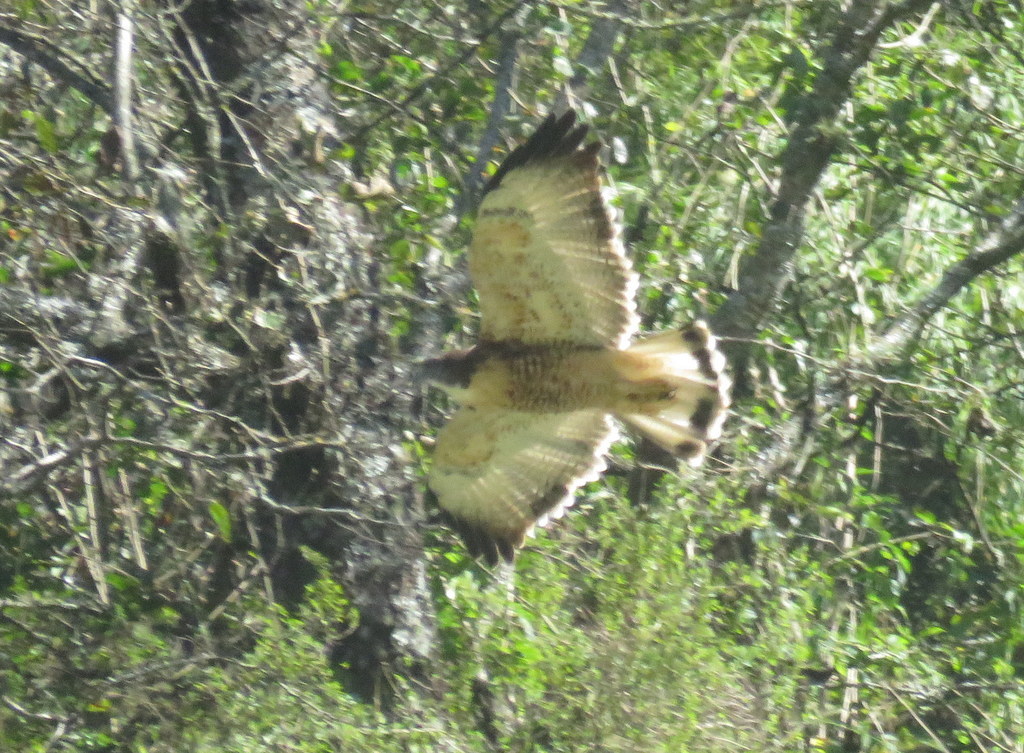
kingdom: Animalia
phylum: Chordata
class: Aves
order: Accipitriformes
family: Accipitridae
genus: Buteo
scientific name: Buteo polyosoma
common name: Variable hawk
